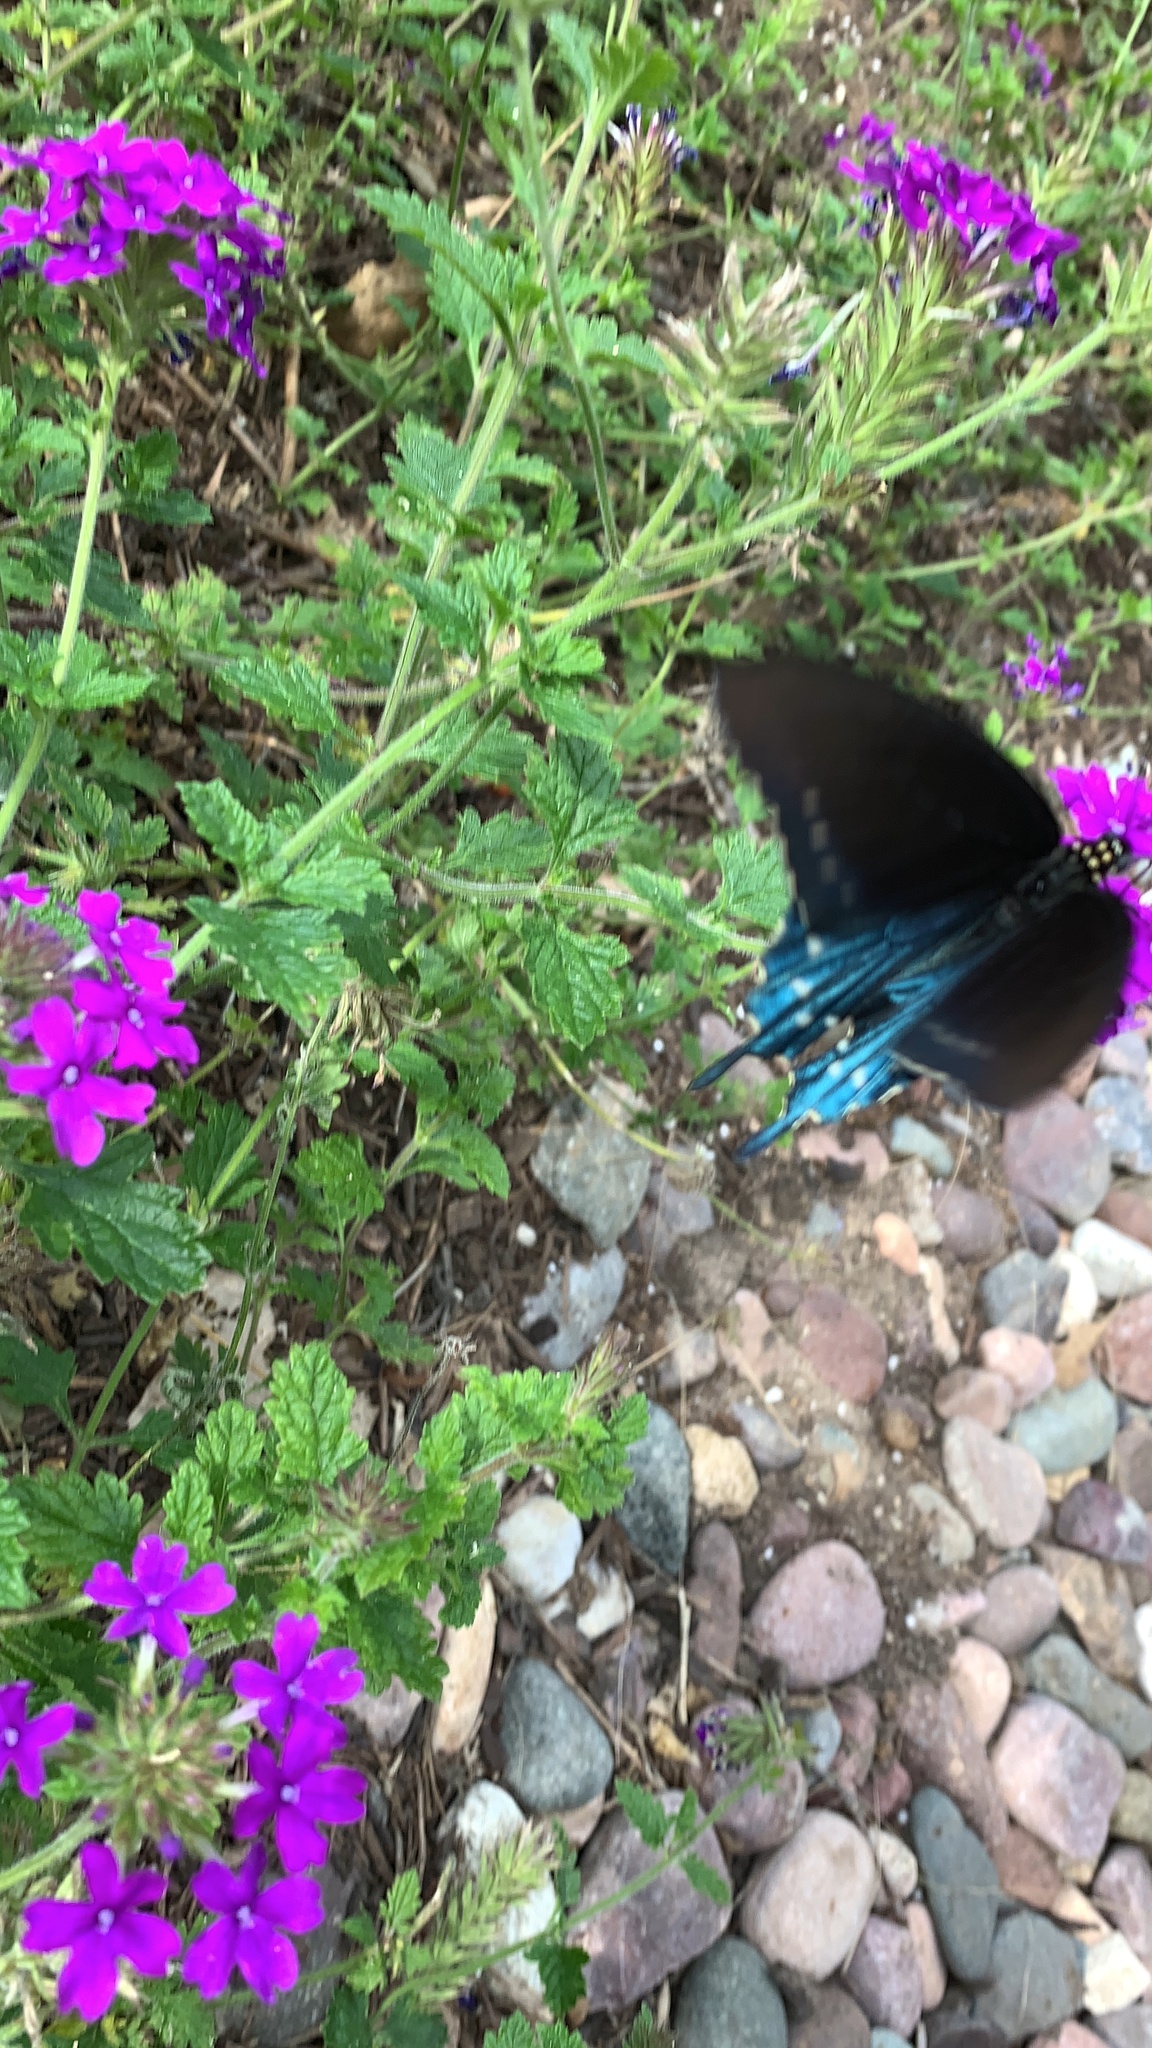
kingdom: Animalia
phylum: Arthropoda
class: Insecta
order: Lepidoptera
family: Papilionidae
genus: Battus
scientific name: Battus philenor
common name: Pipevine swallowtail
